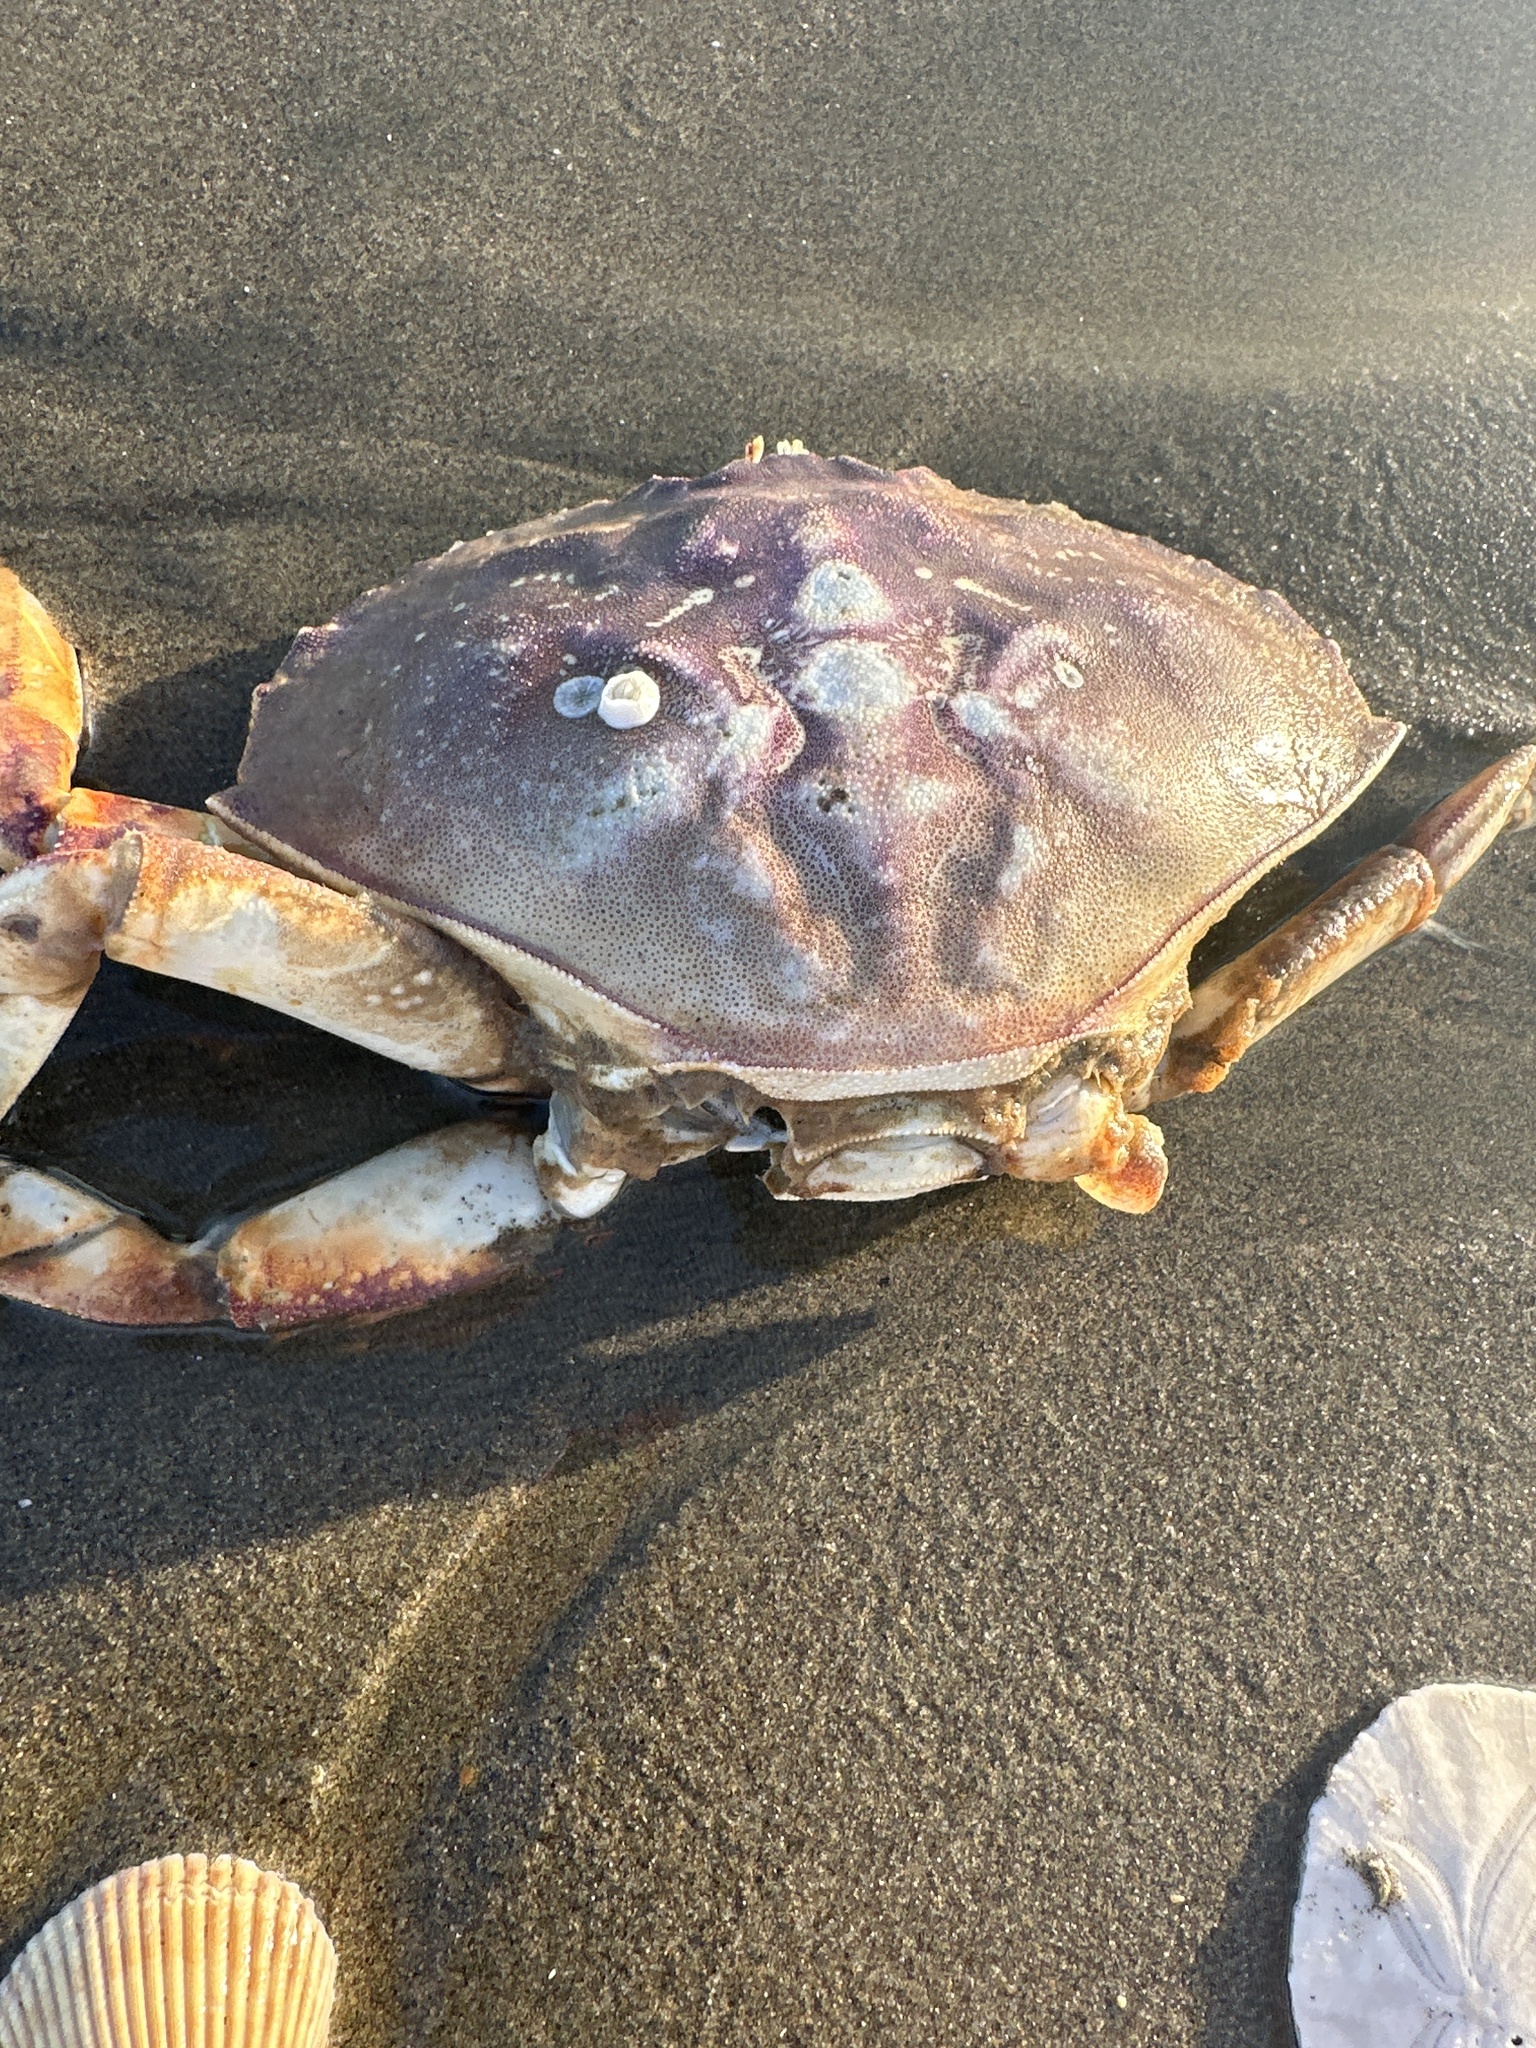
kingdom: Animalia
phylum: Arthropoda
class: Malacostraca
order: Decapoda
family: Cancridae
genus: Metacarcinus
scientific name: Metacarcinus magister
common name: Californian crab
